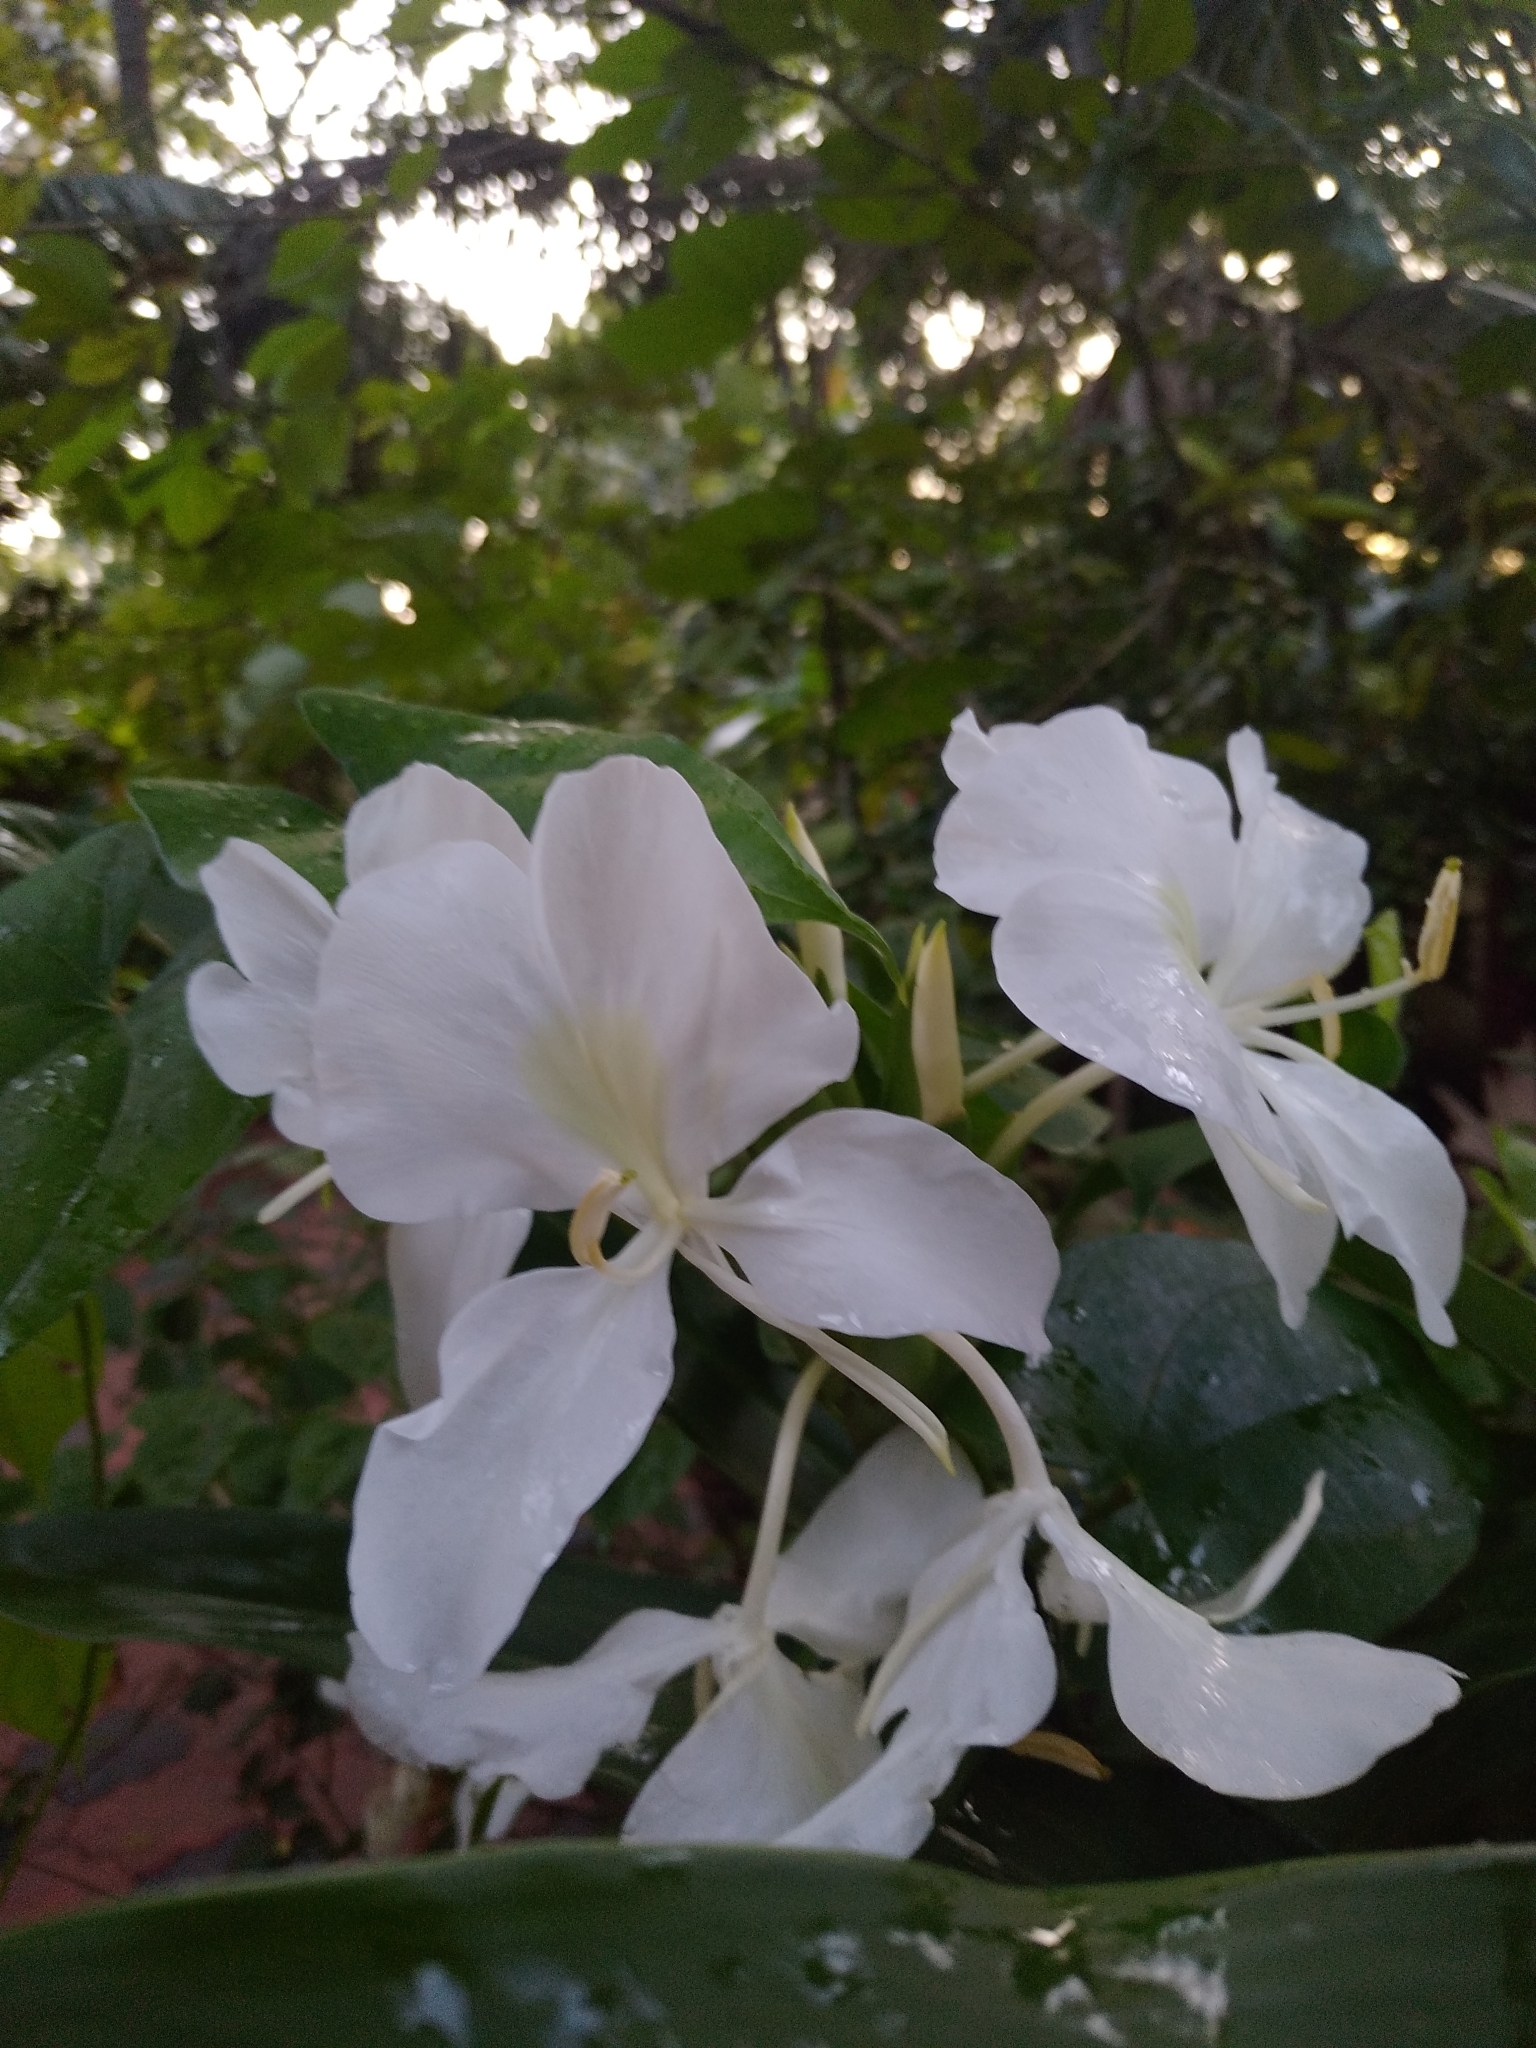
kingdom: Plantae
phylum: Tracheophyta
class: Liliopsida
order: Zingiberales
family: Zingiberaceae
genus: Hedychium
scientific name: Hedychium coronarium
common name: White garland-lily
